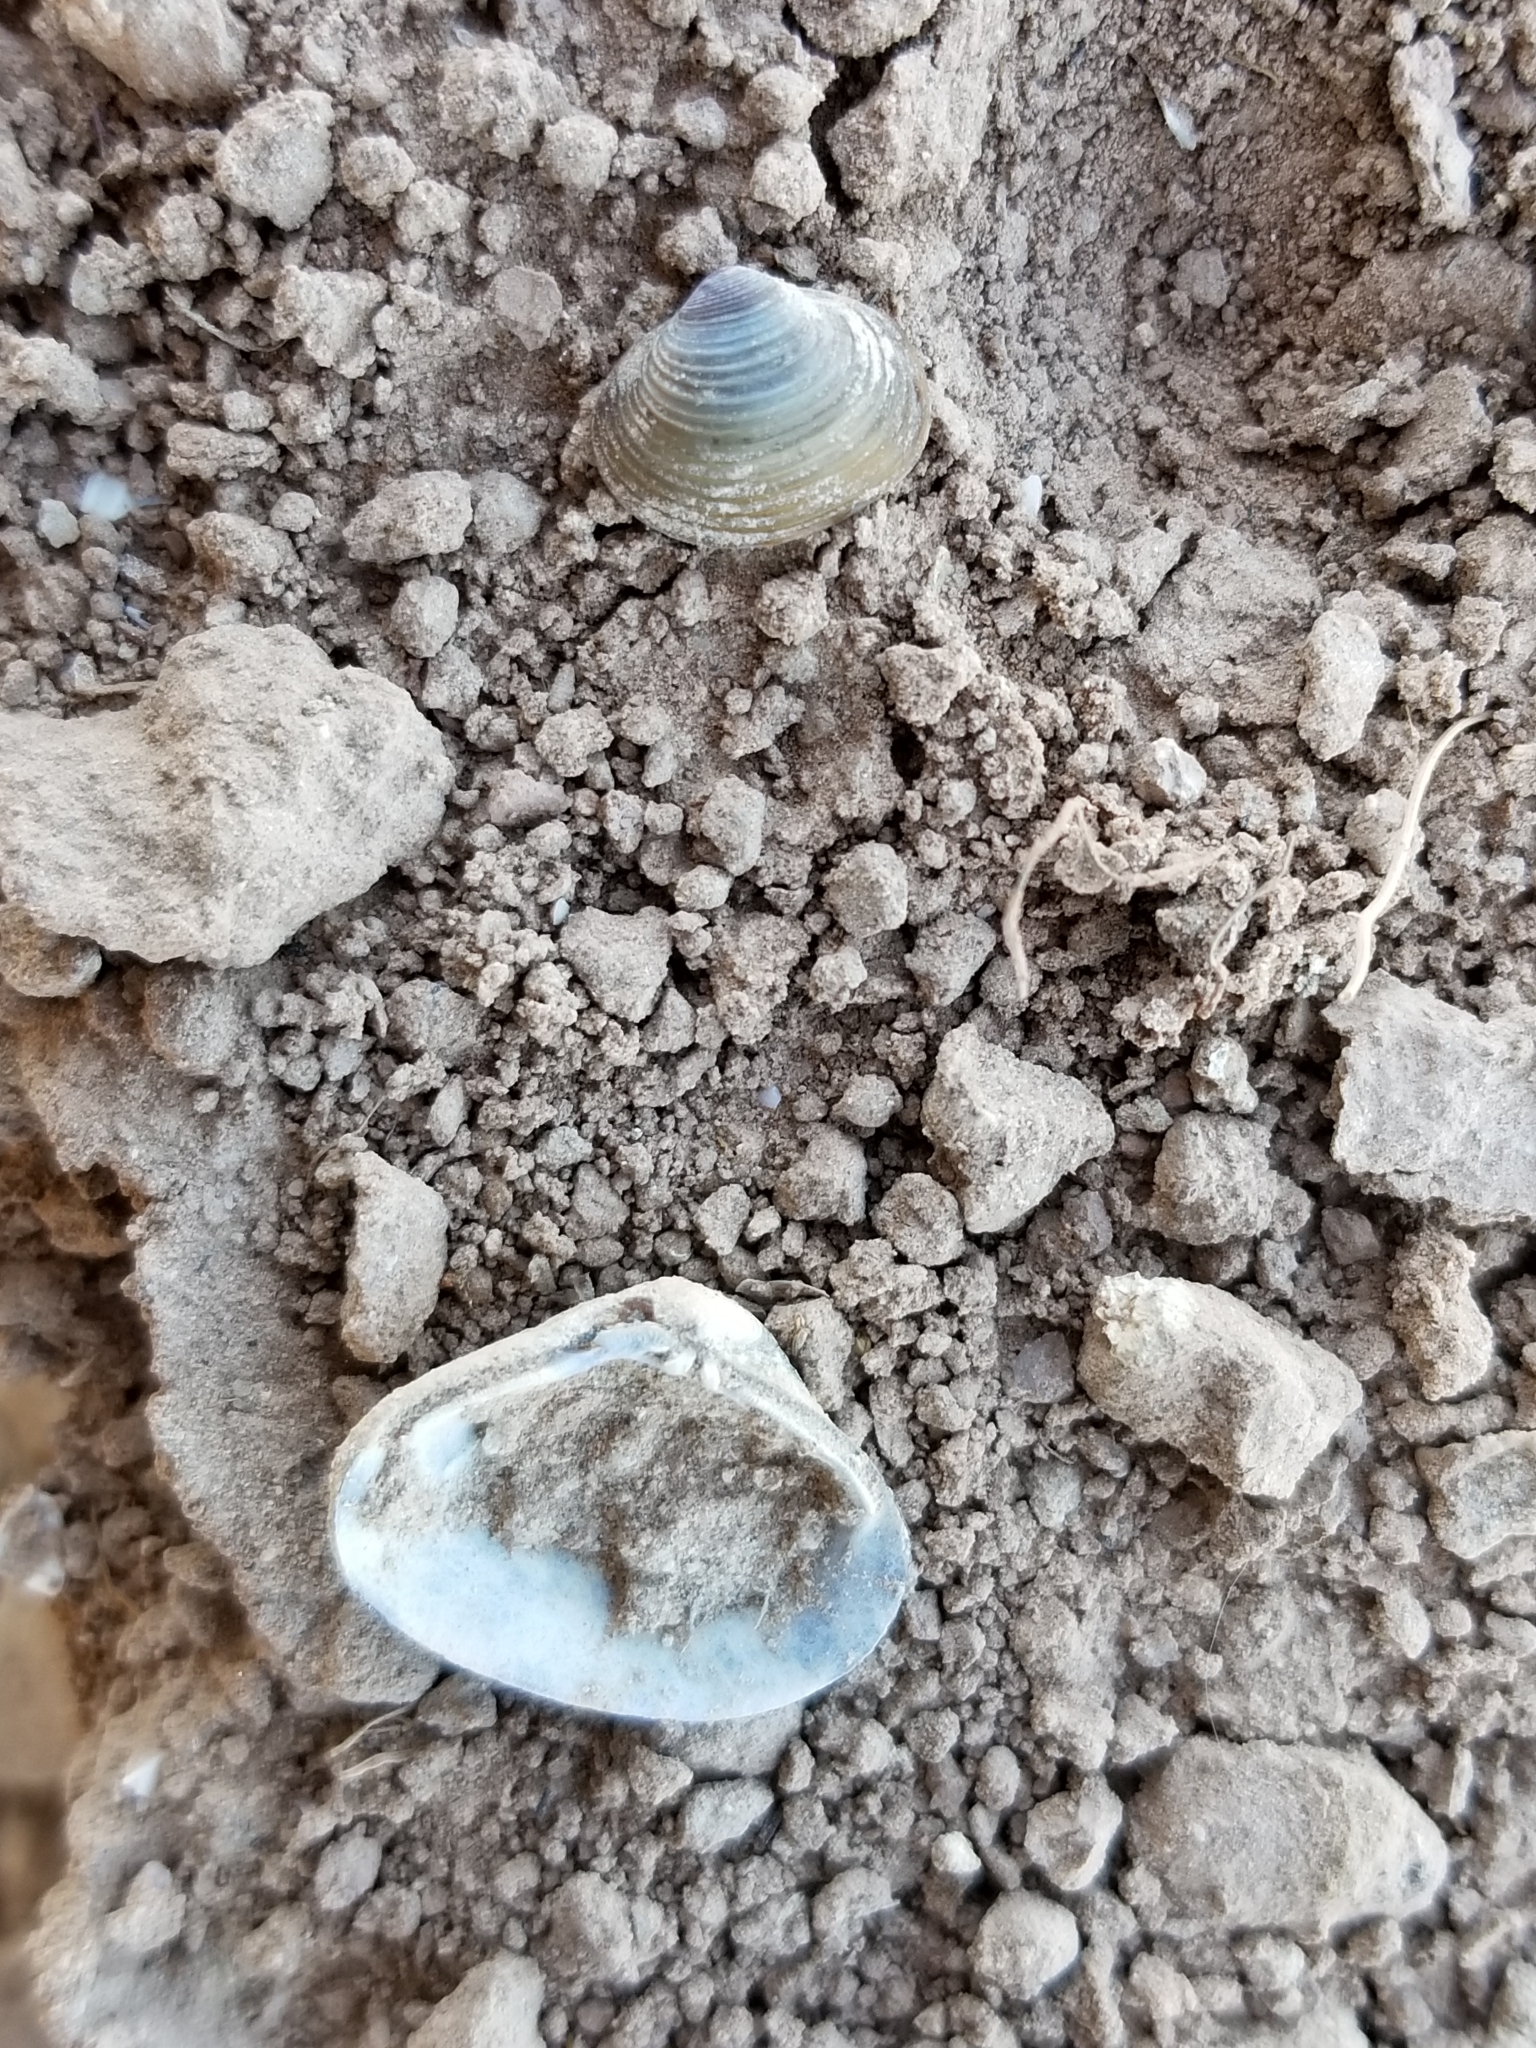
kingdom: Animalia
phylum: Mollusca
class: Bivalvia
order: Venerida
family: Cyrenidae
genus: Corbicula
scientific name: Corbicula fluminea
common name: Asian clam
